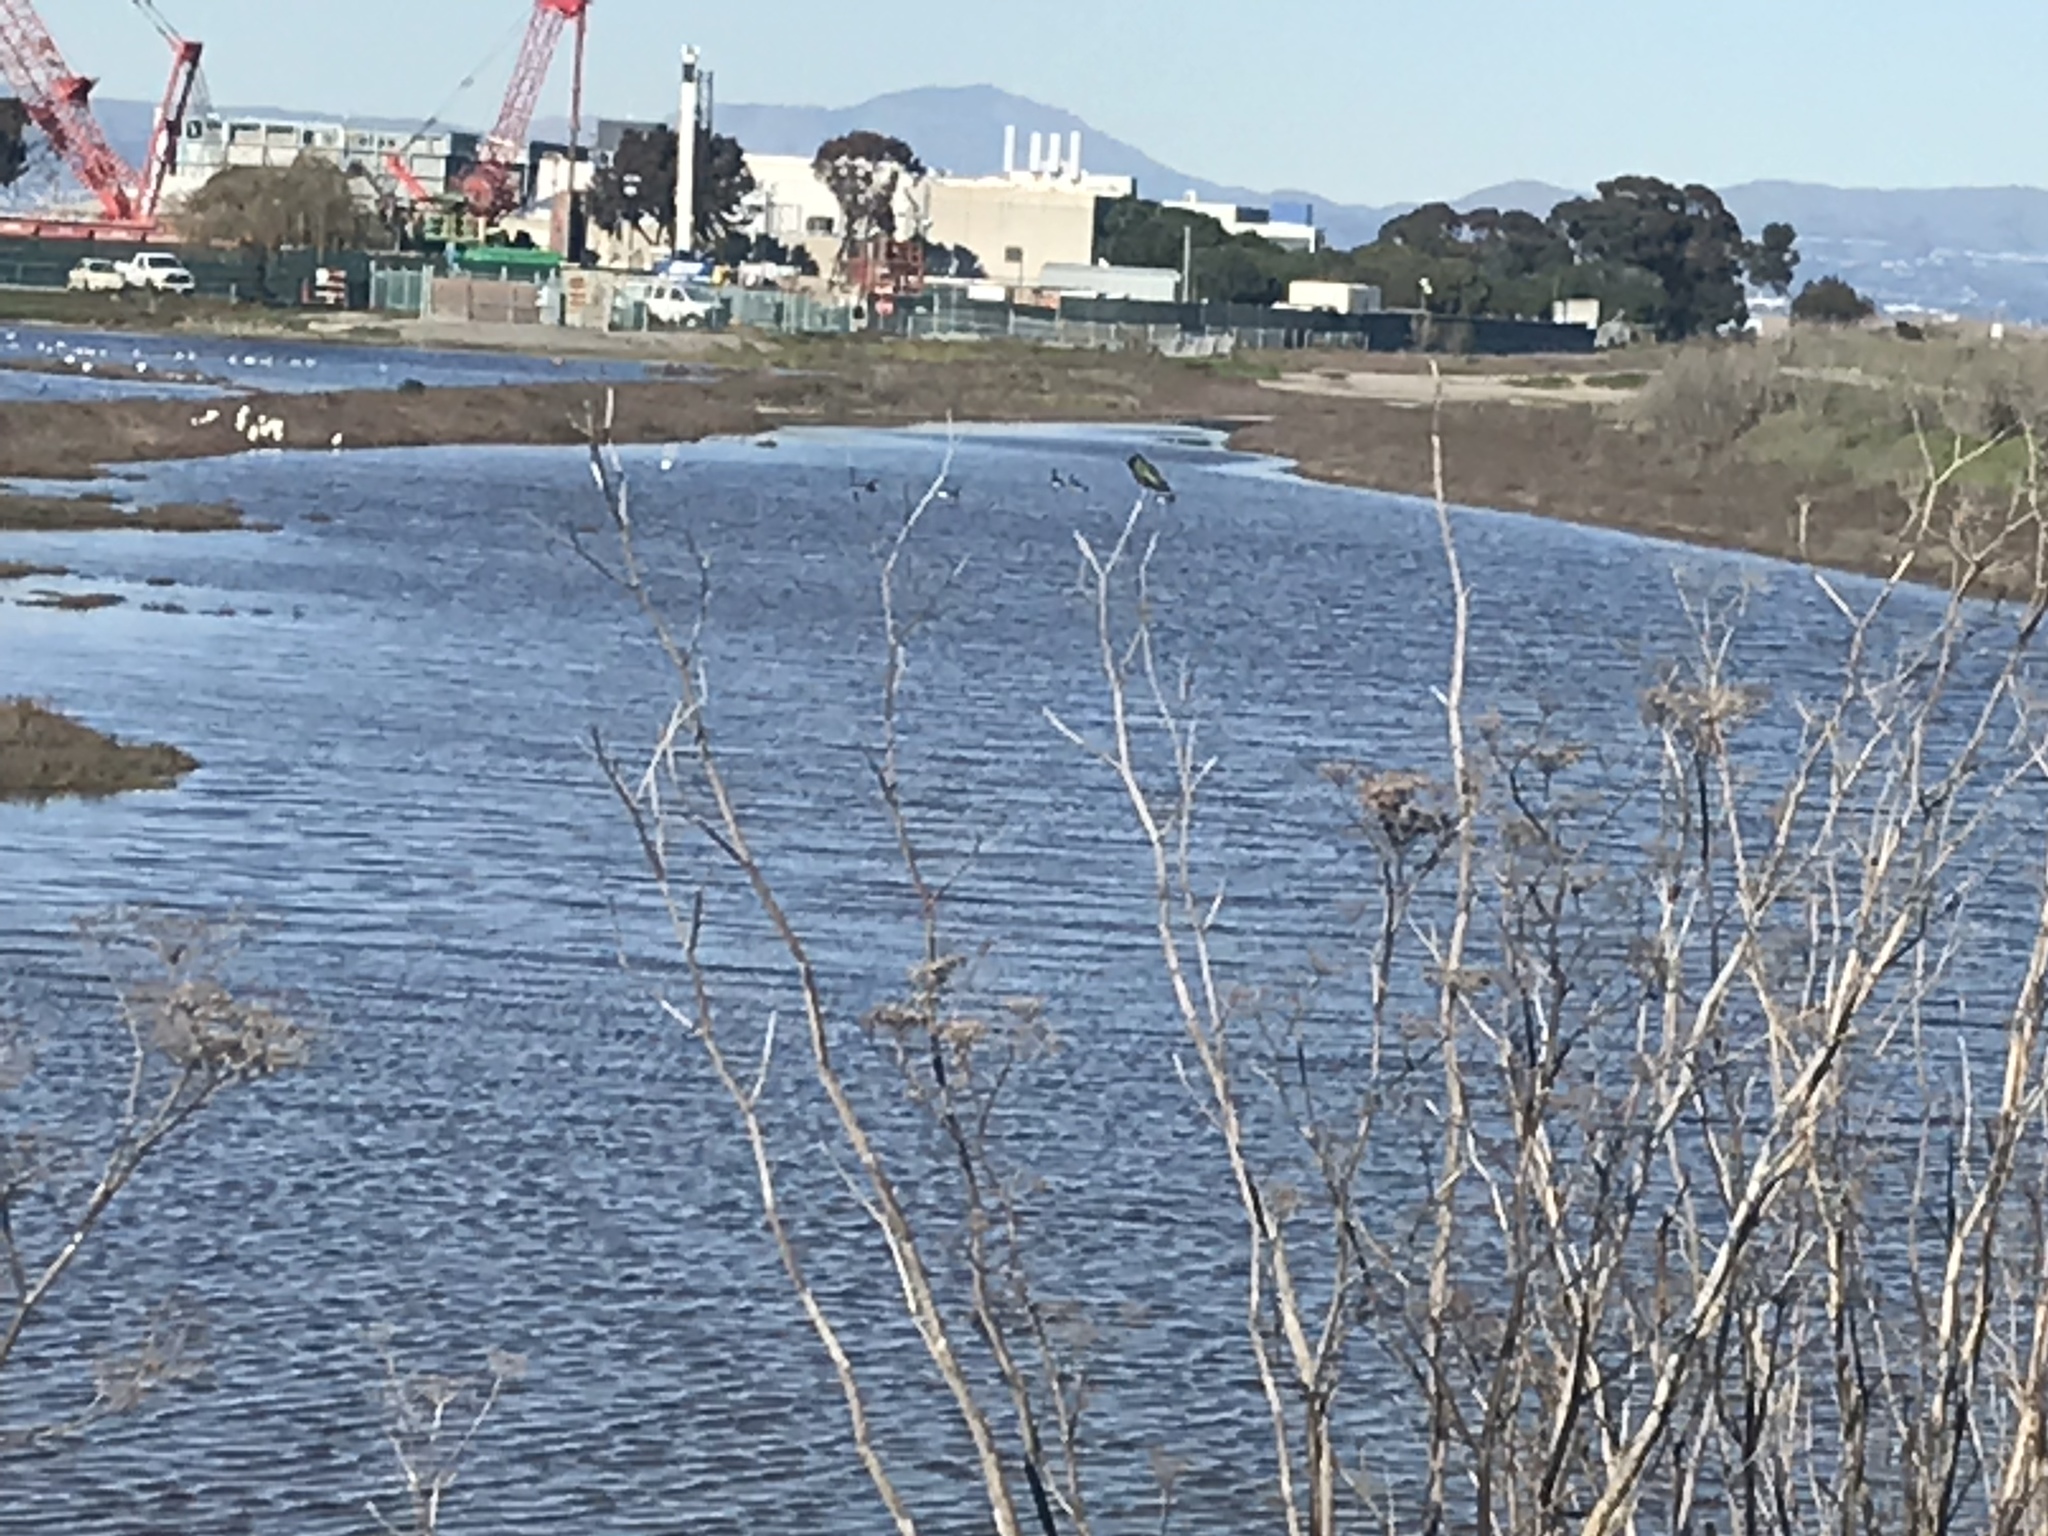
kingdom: Animalia
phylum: Chordata
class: Aves
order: Apodiformes
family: Trochilidae
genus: Calypte
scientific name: Calypte anna
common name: Anna's hummingbird
